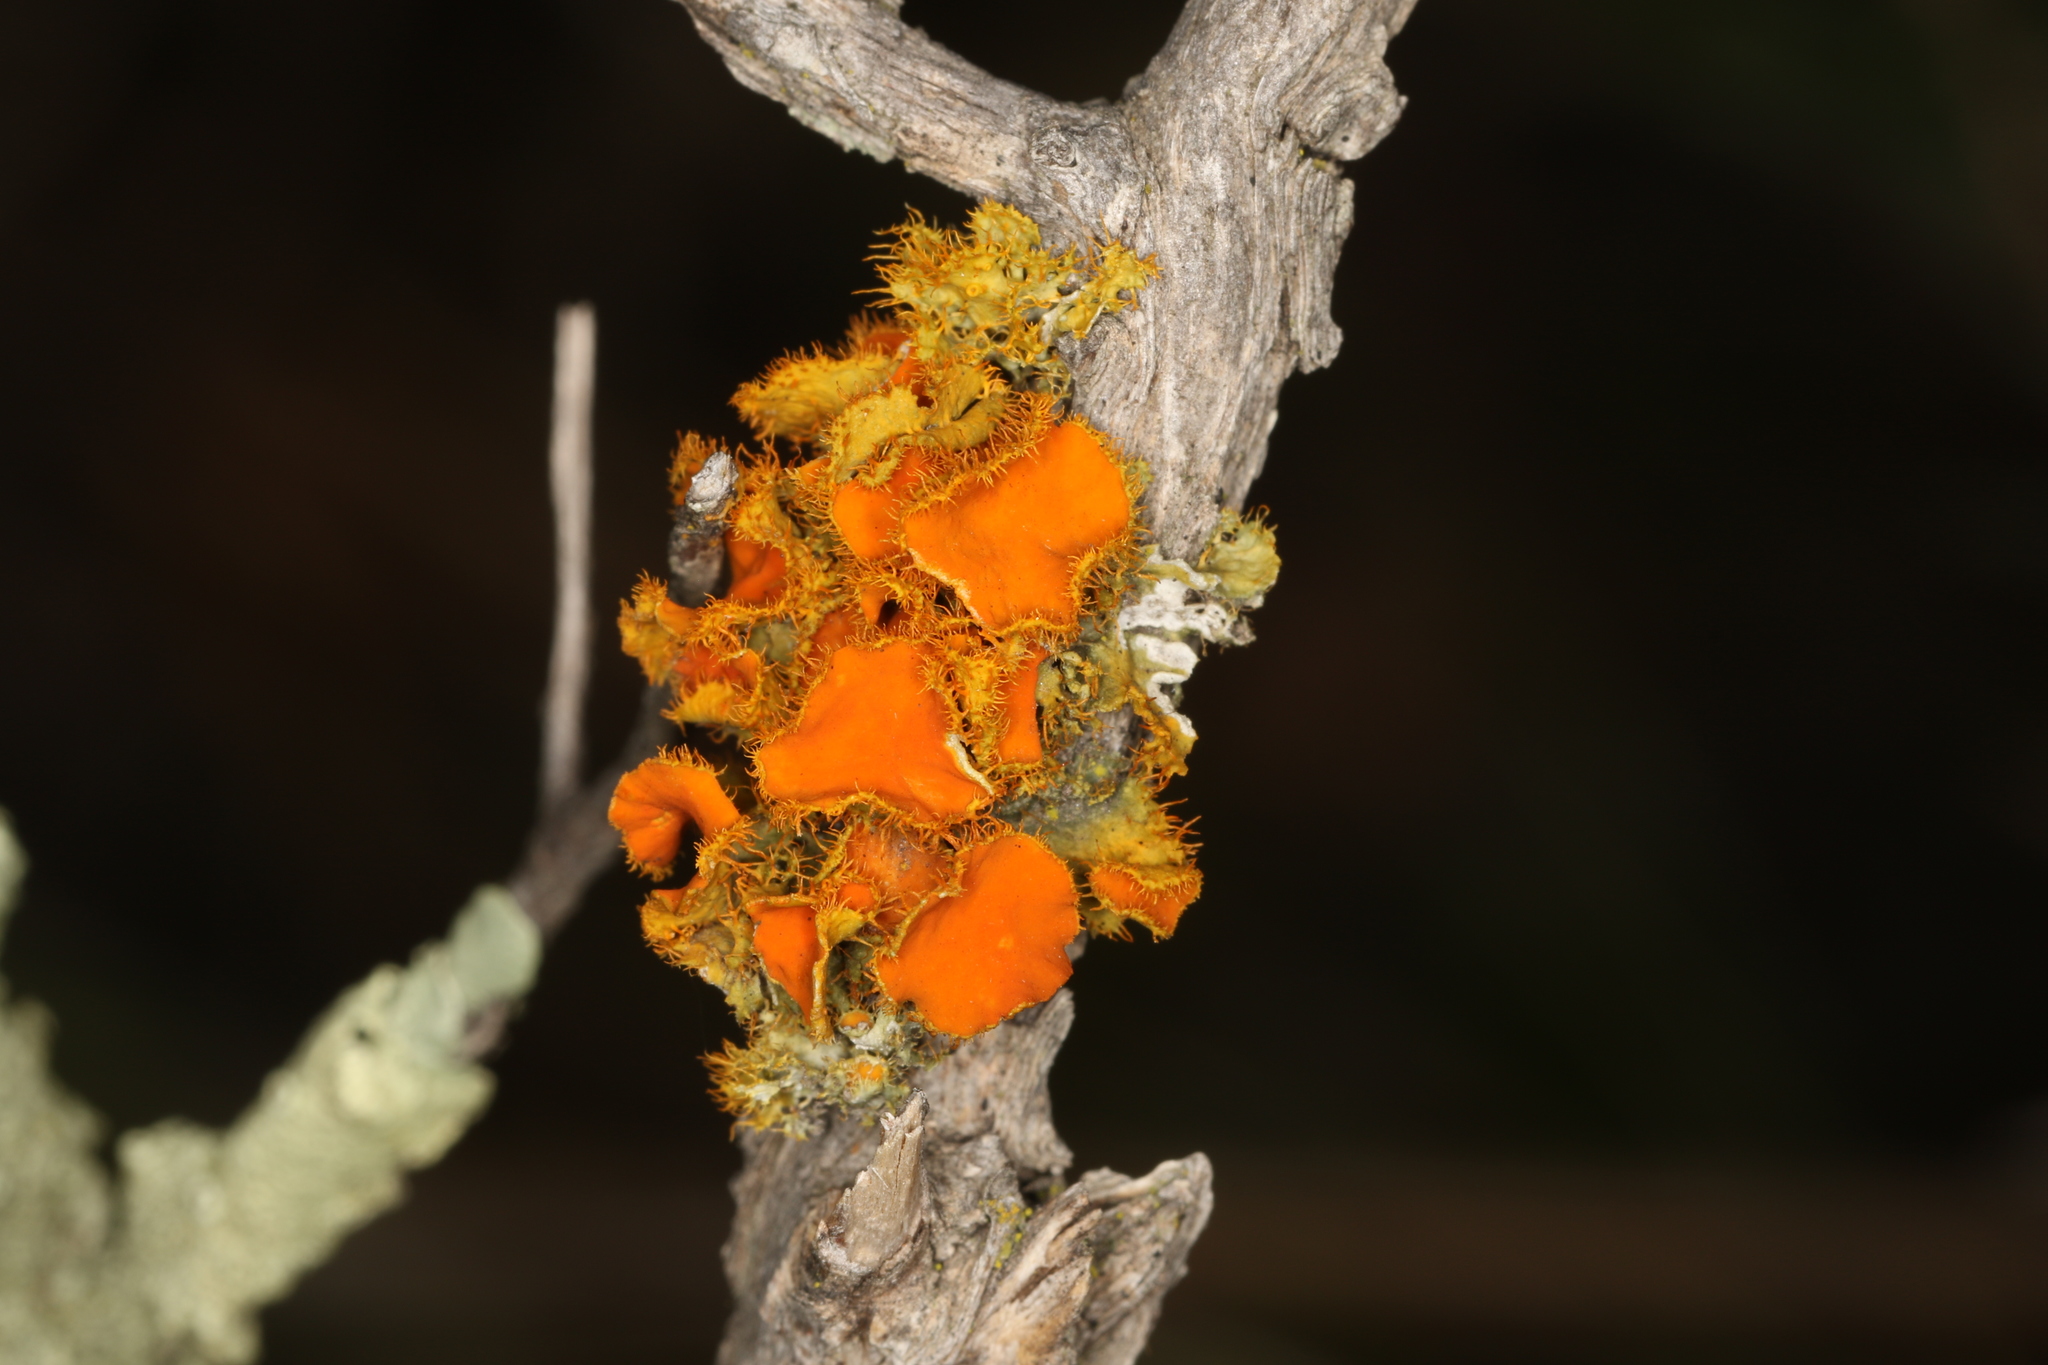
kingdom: Fungi
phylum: Ascomycota
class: Lecanoromycetes
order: Teloschistales
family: Teloschistaceae
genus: Niorma
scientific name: Niorma chrysophthalma
